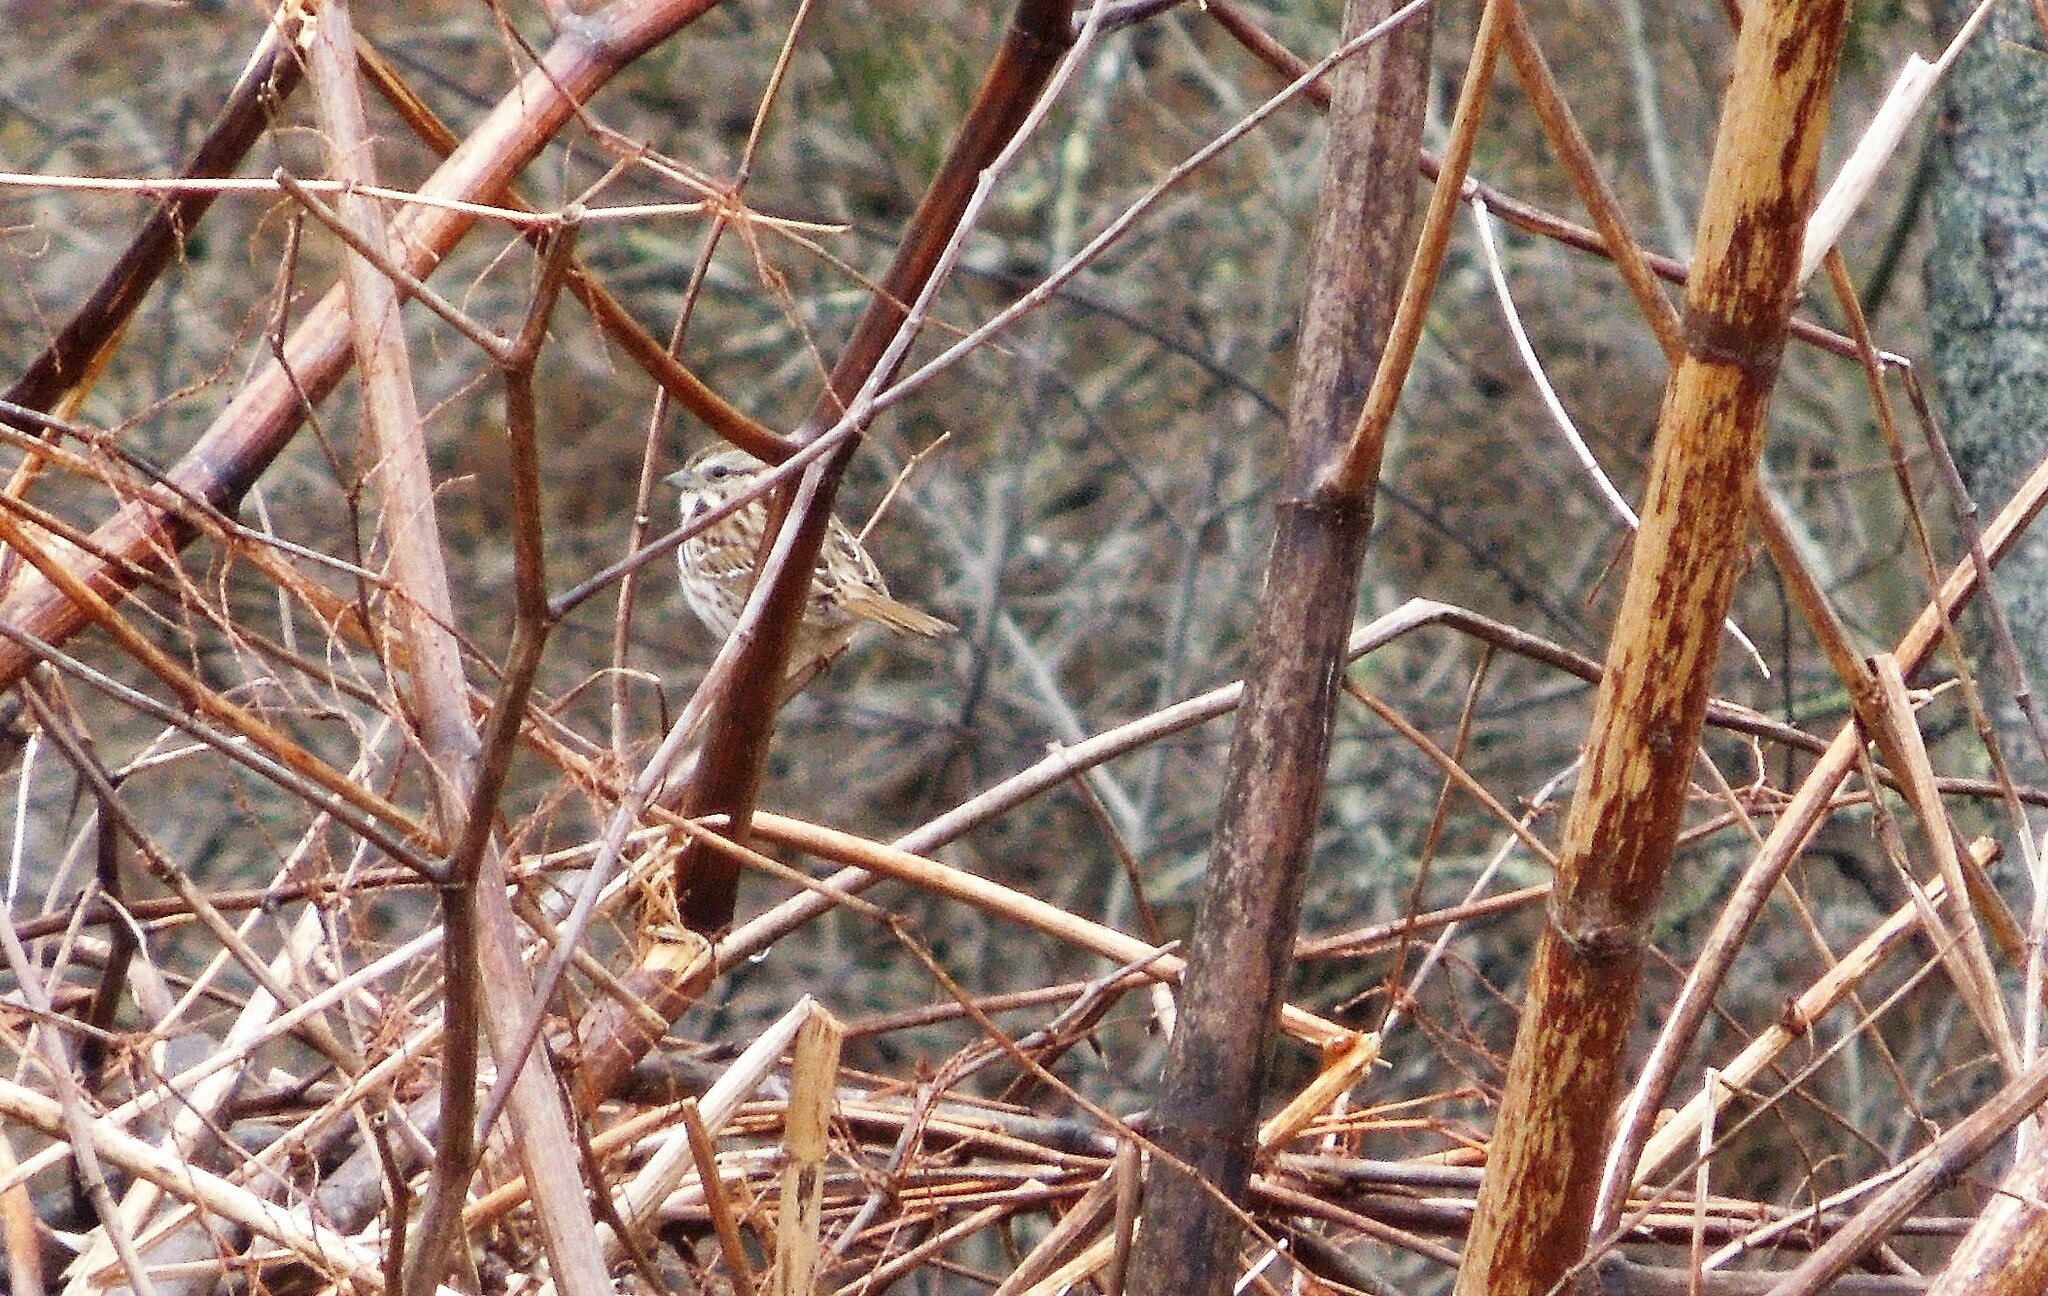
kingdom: Animalia
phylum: Chordata
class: Aves
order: Passeriformes
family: Passerellidae
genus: Melospiza
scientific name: Melospiza melodia
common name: Song sparrow
